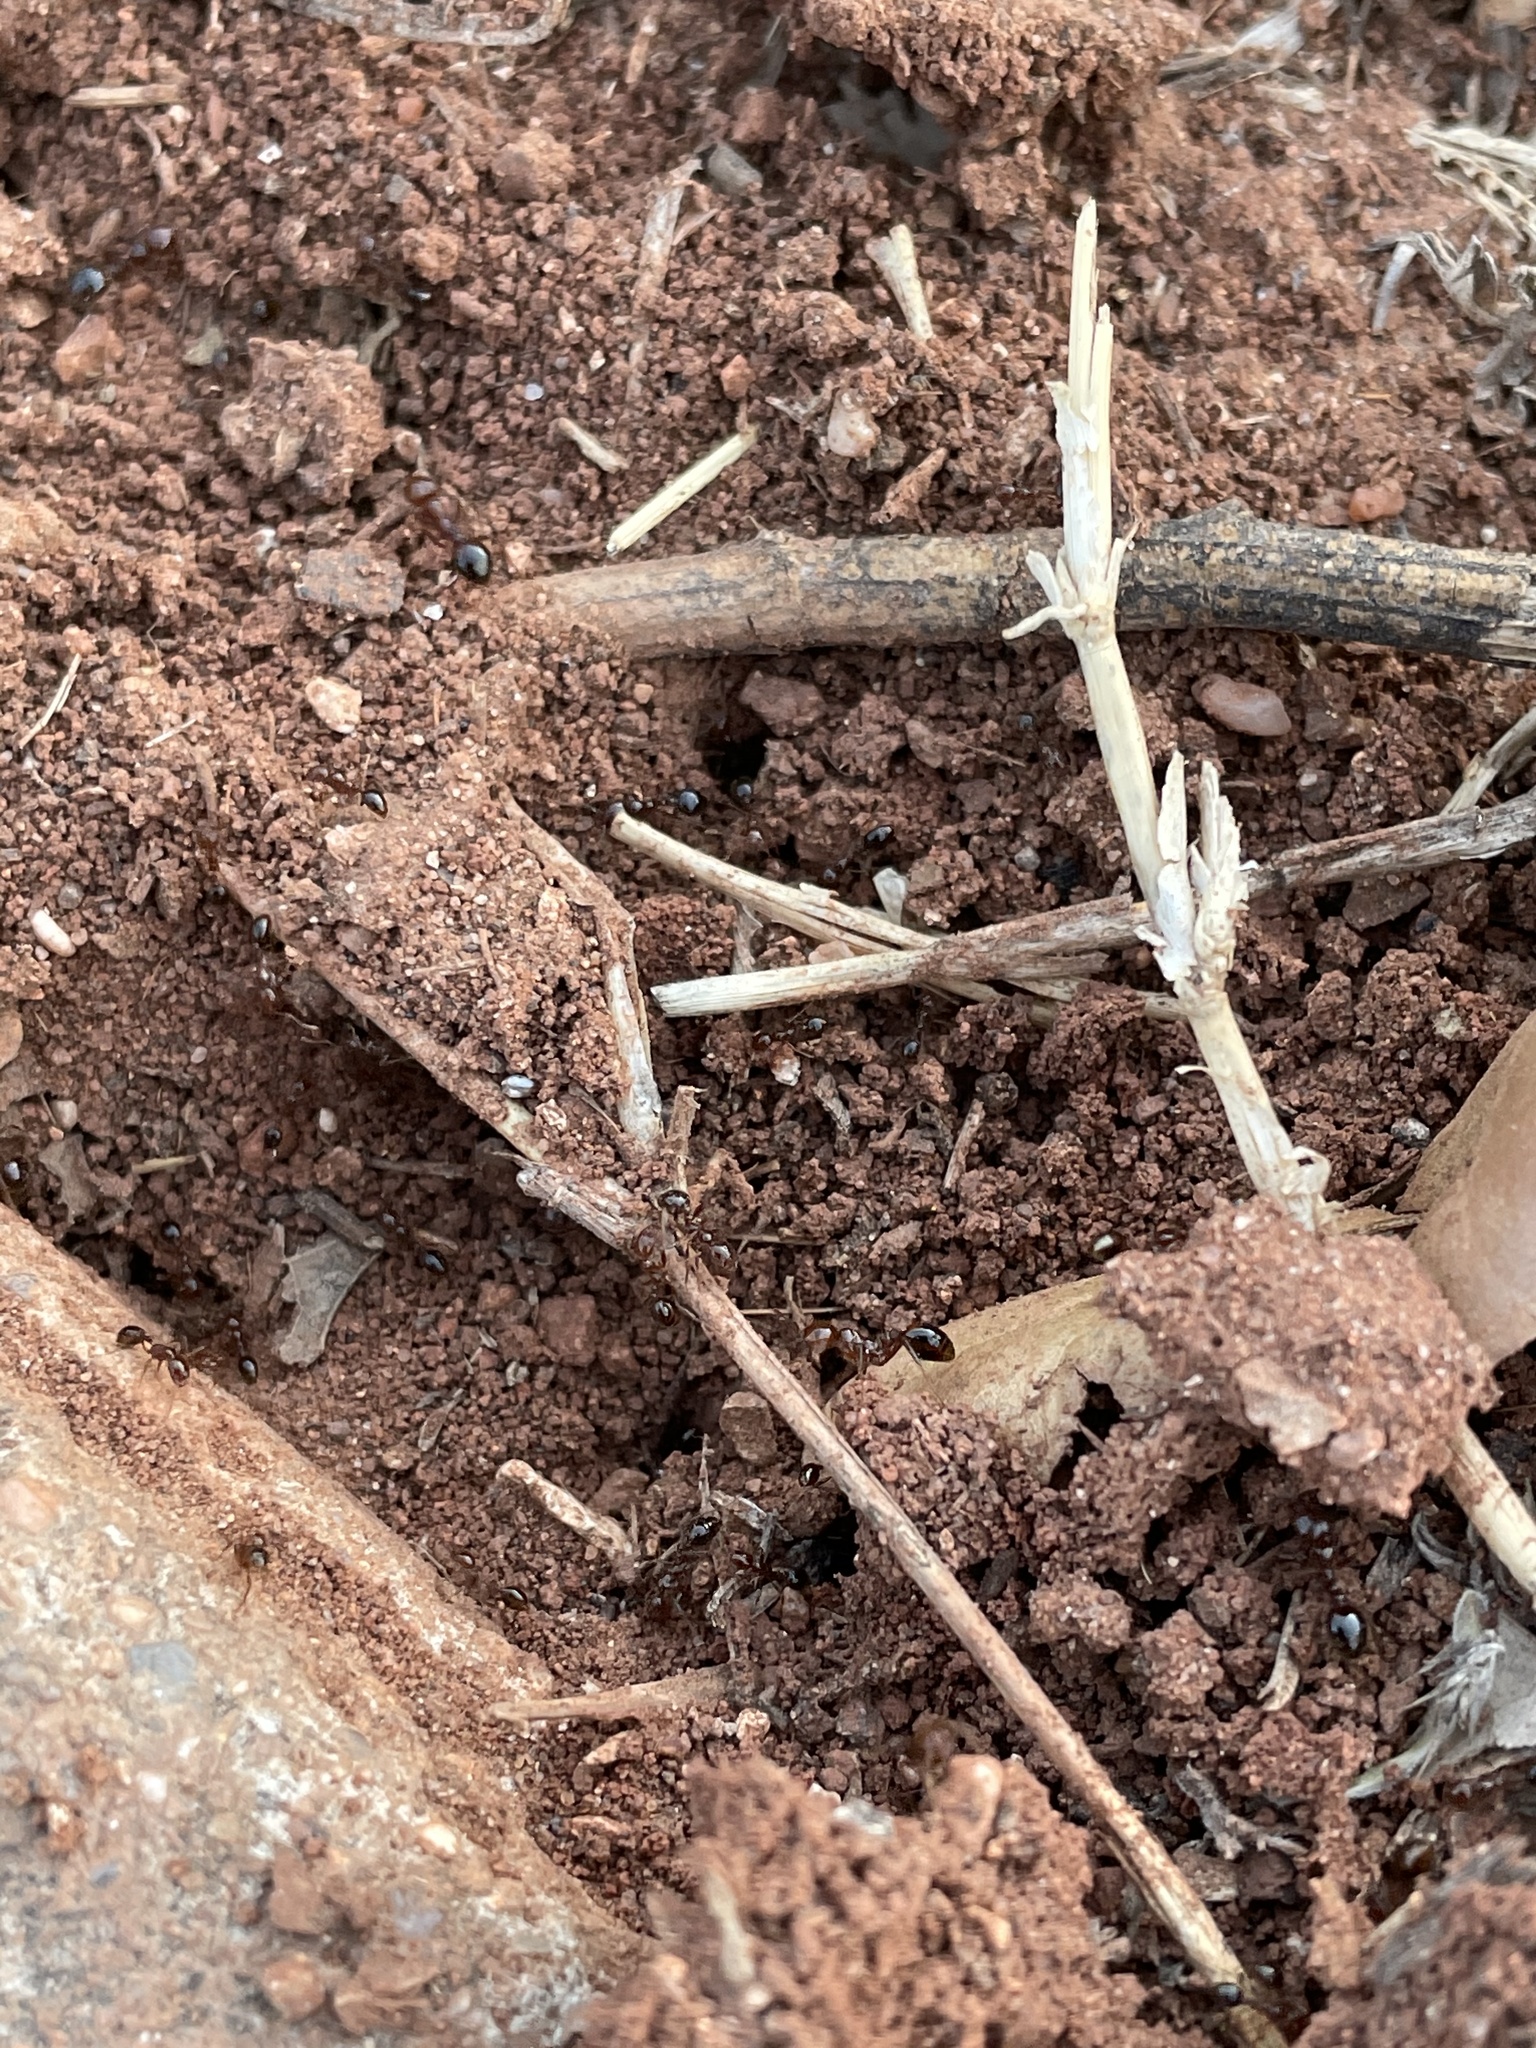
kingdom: Animalia
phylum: Arthropoda
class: Insecta
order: Hymenoptera
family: Formicidae
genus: Solenopsis
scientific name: Solenopsis invicta
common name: Red imported fire ant
